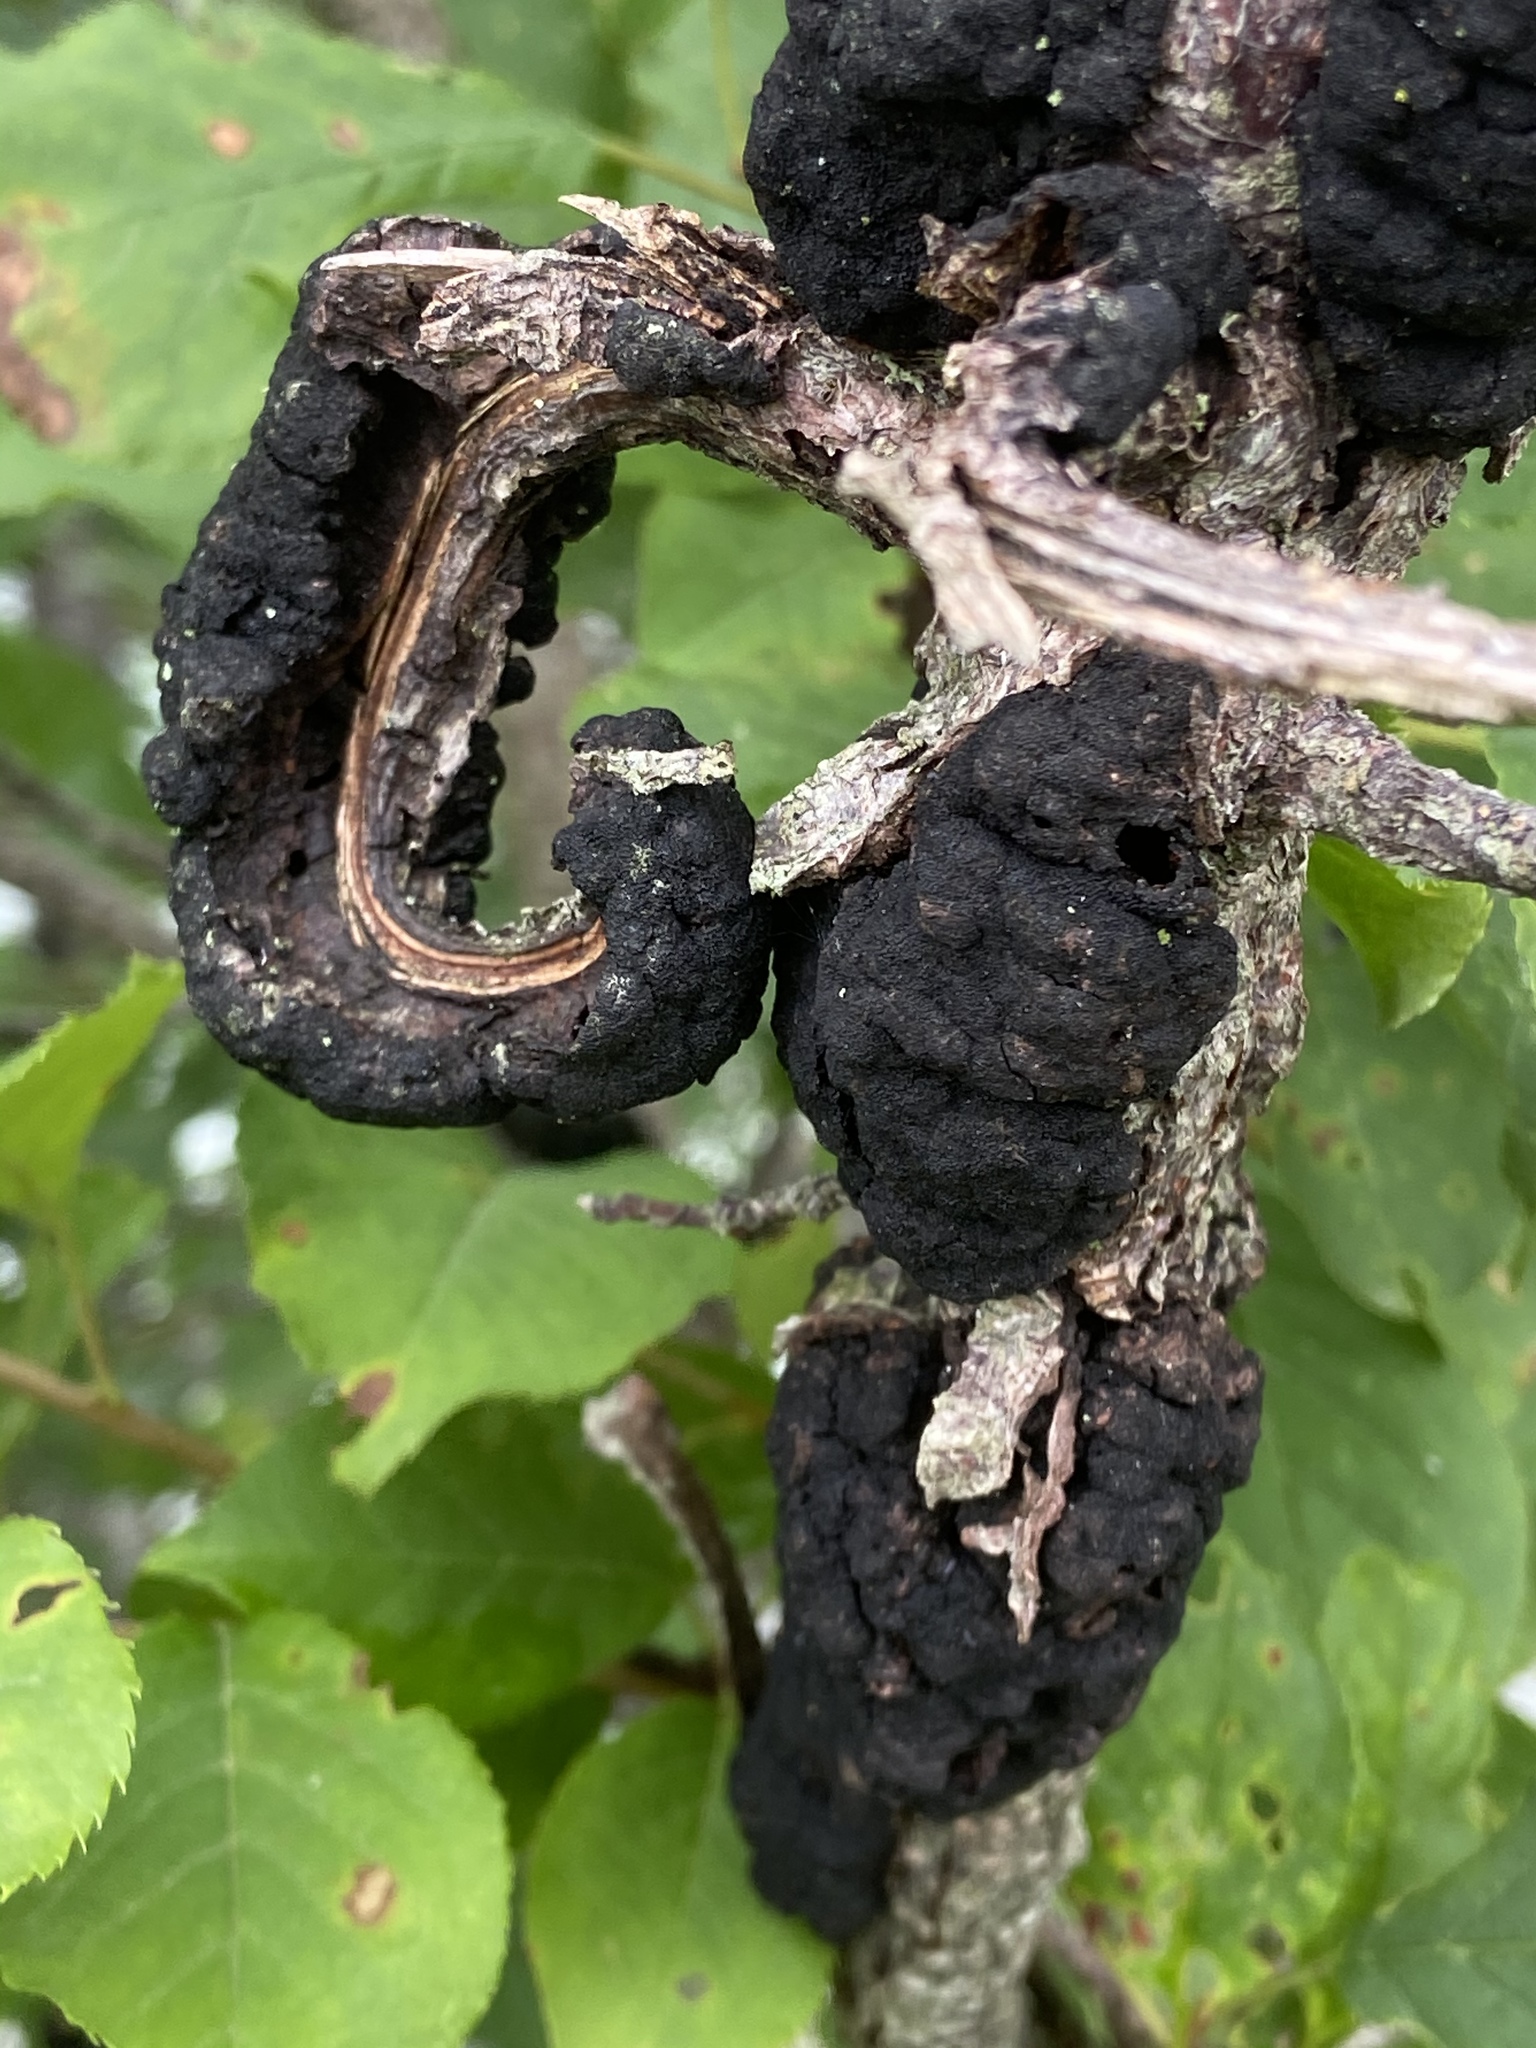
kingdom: Fungi
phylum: Ascomycota
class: Dothideomycetes
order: Venturiales
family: Venturiaceae
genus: Apiosporina
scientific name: Apiosporina morbosa
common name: Black knot
